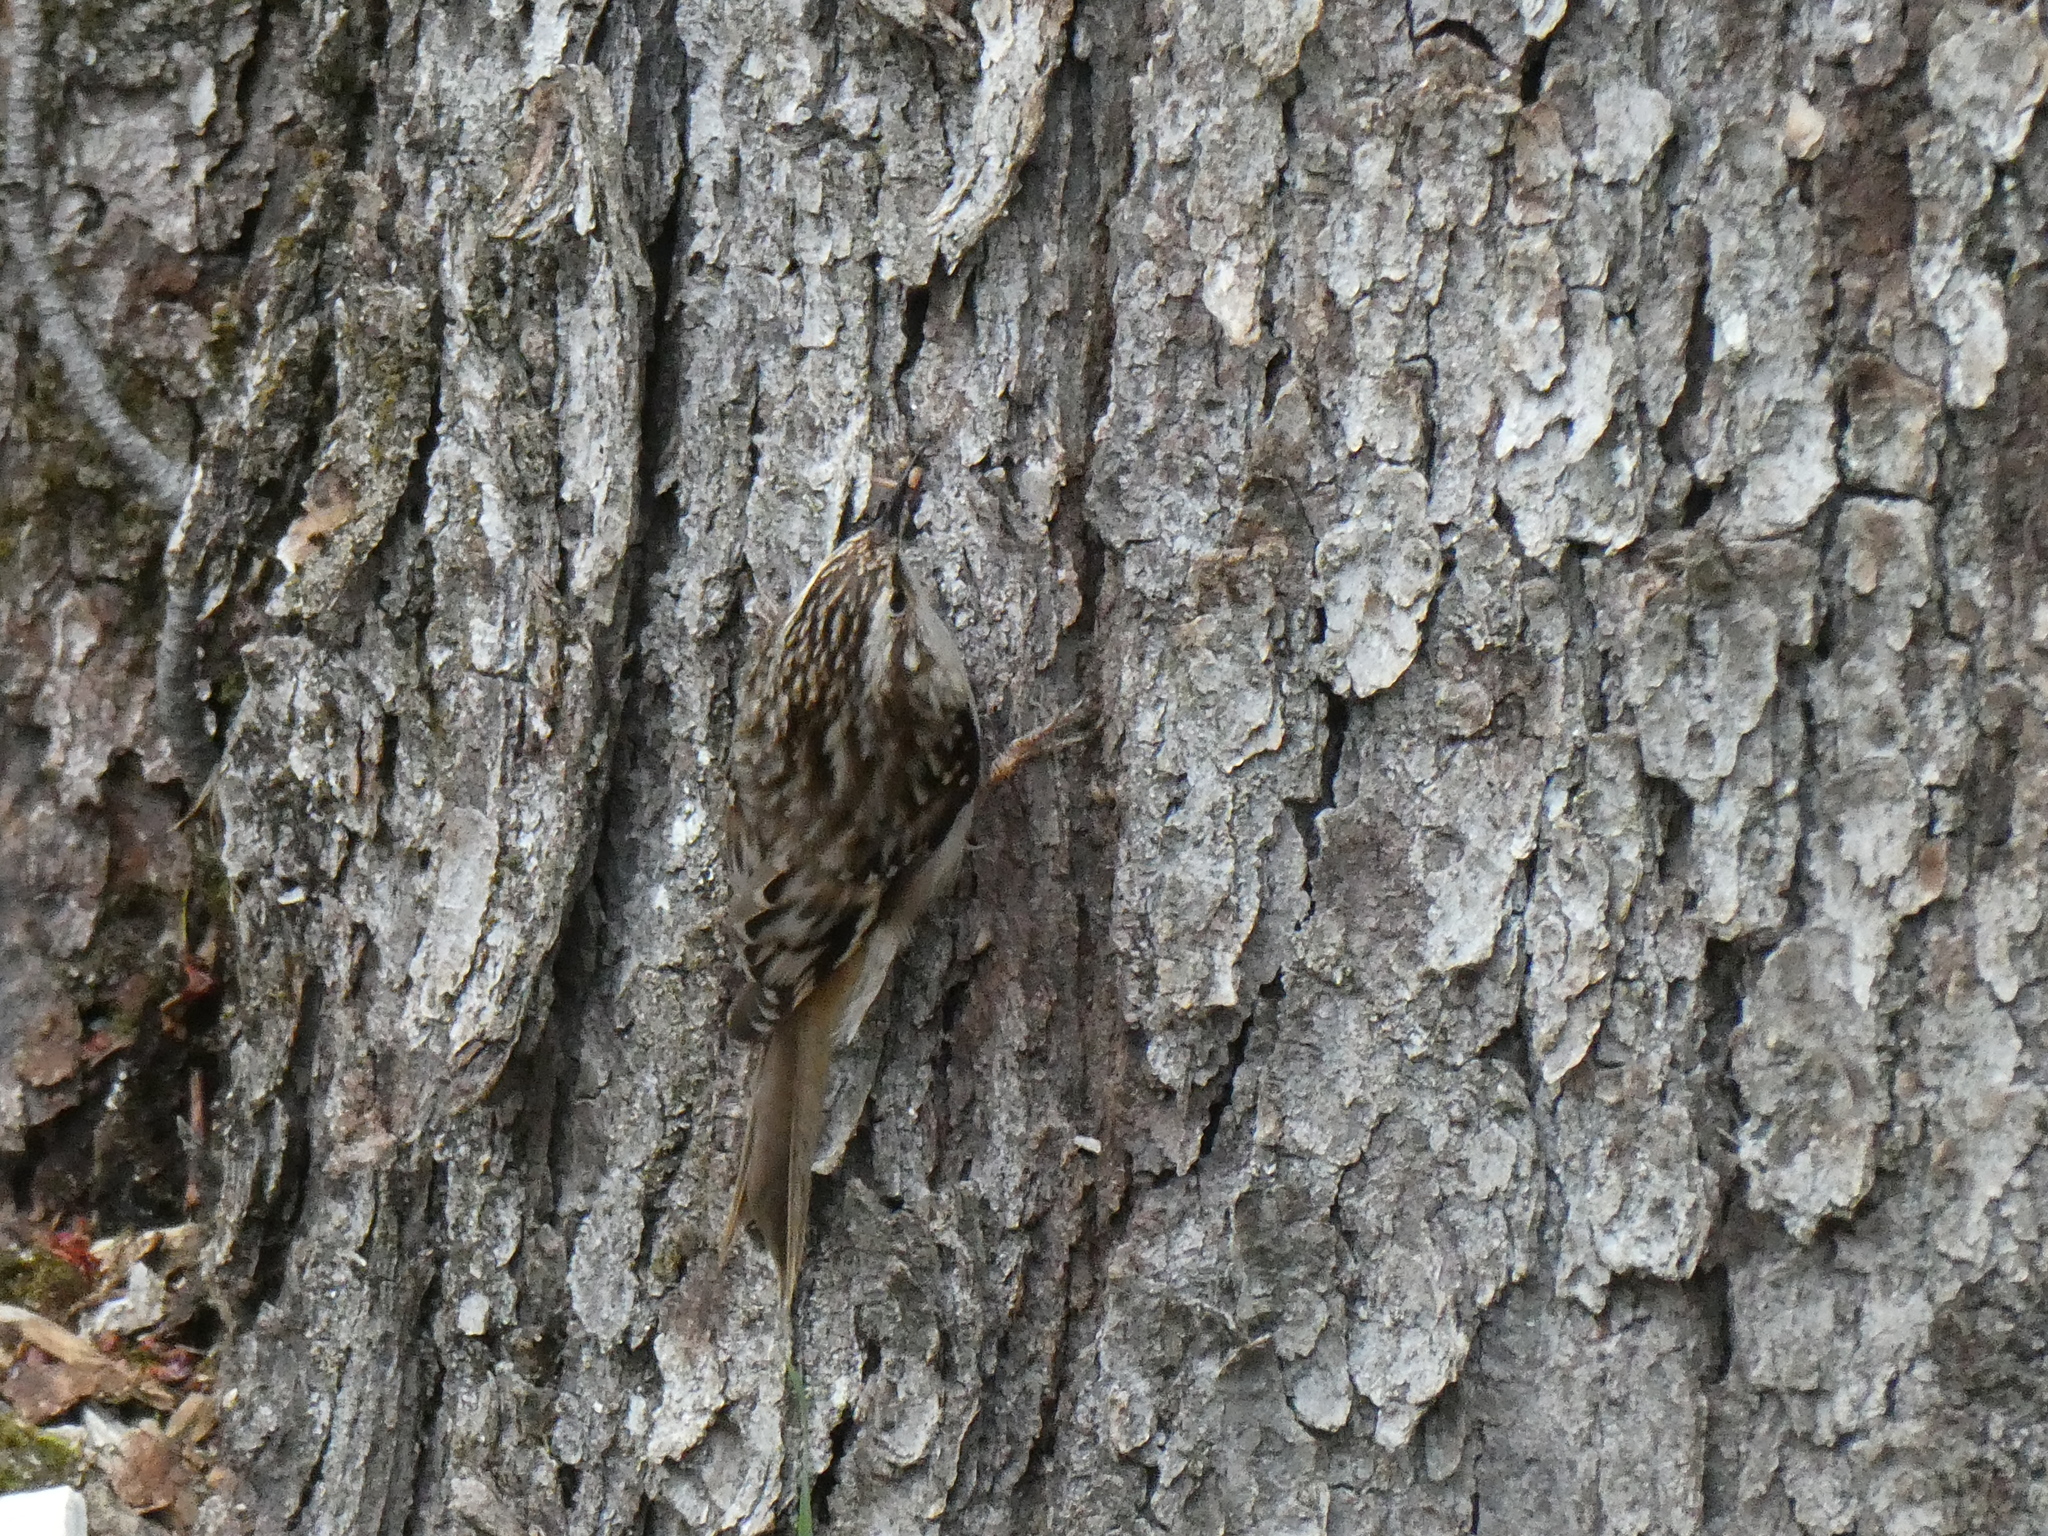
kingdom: Animalia
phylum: Chordata
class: Aves
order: Passeriformes
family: Certhiidae
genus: Certhia
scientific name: Certhia americana
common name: Brown creeper
